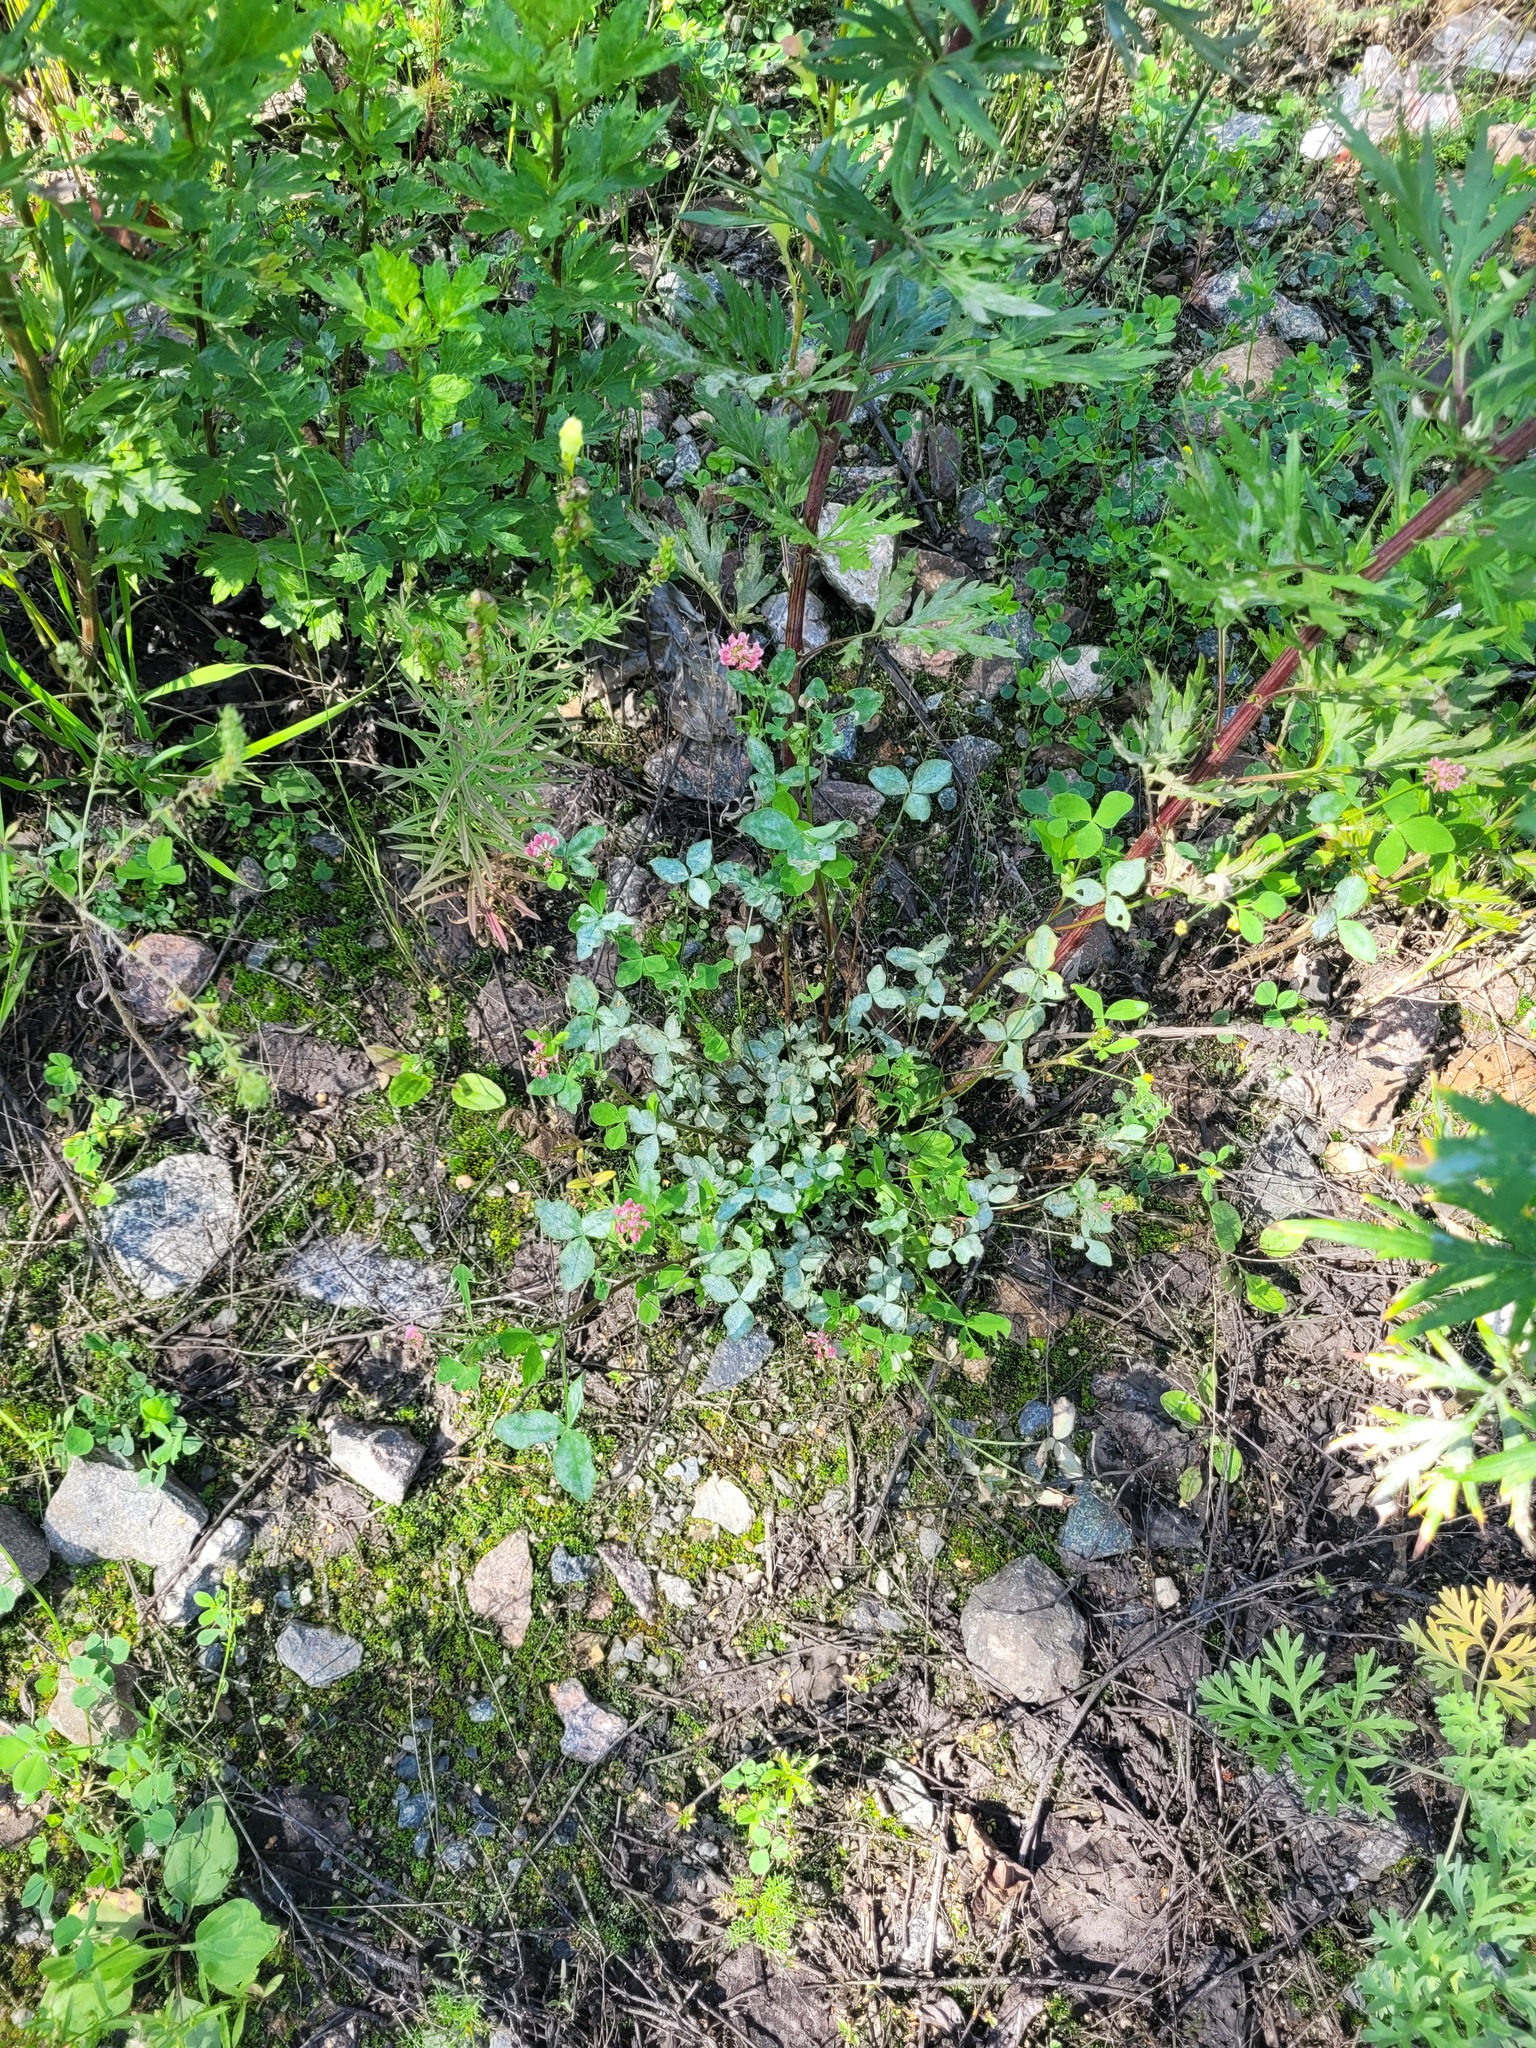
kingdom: Plantae
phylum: Tracheophyta
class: Magnoliopsida
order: Fabales
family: Fabaceae
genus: Trifolium
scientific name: Trifolium hybridum
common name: Alsike clover
